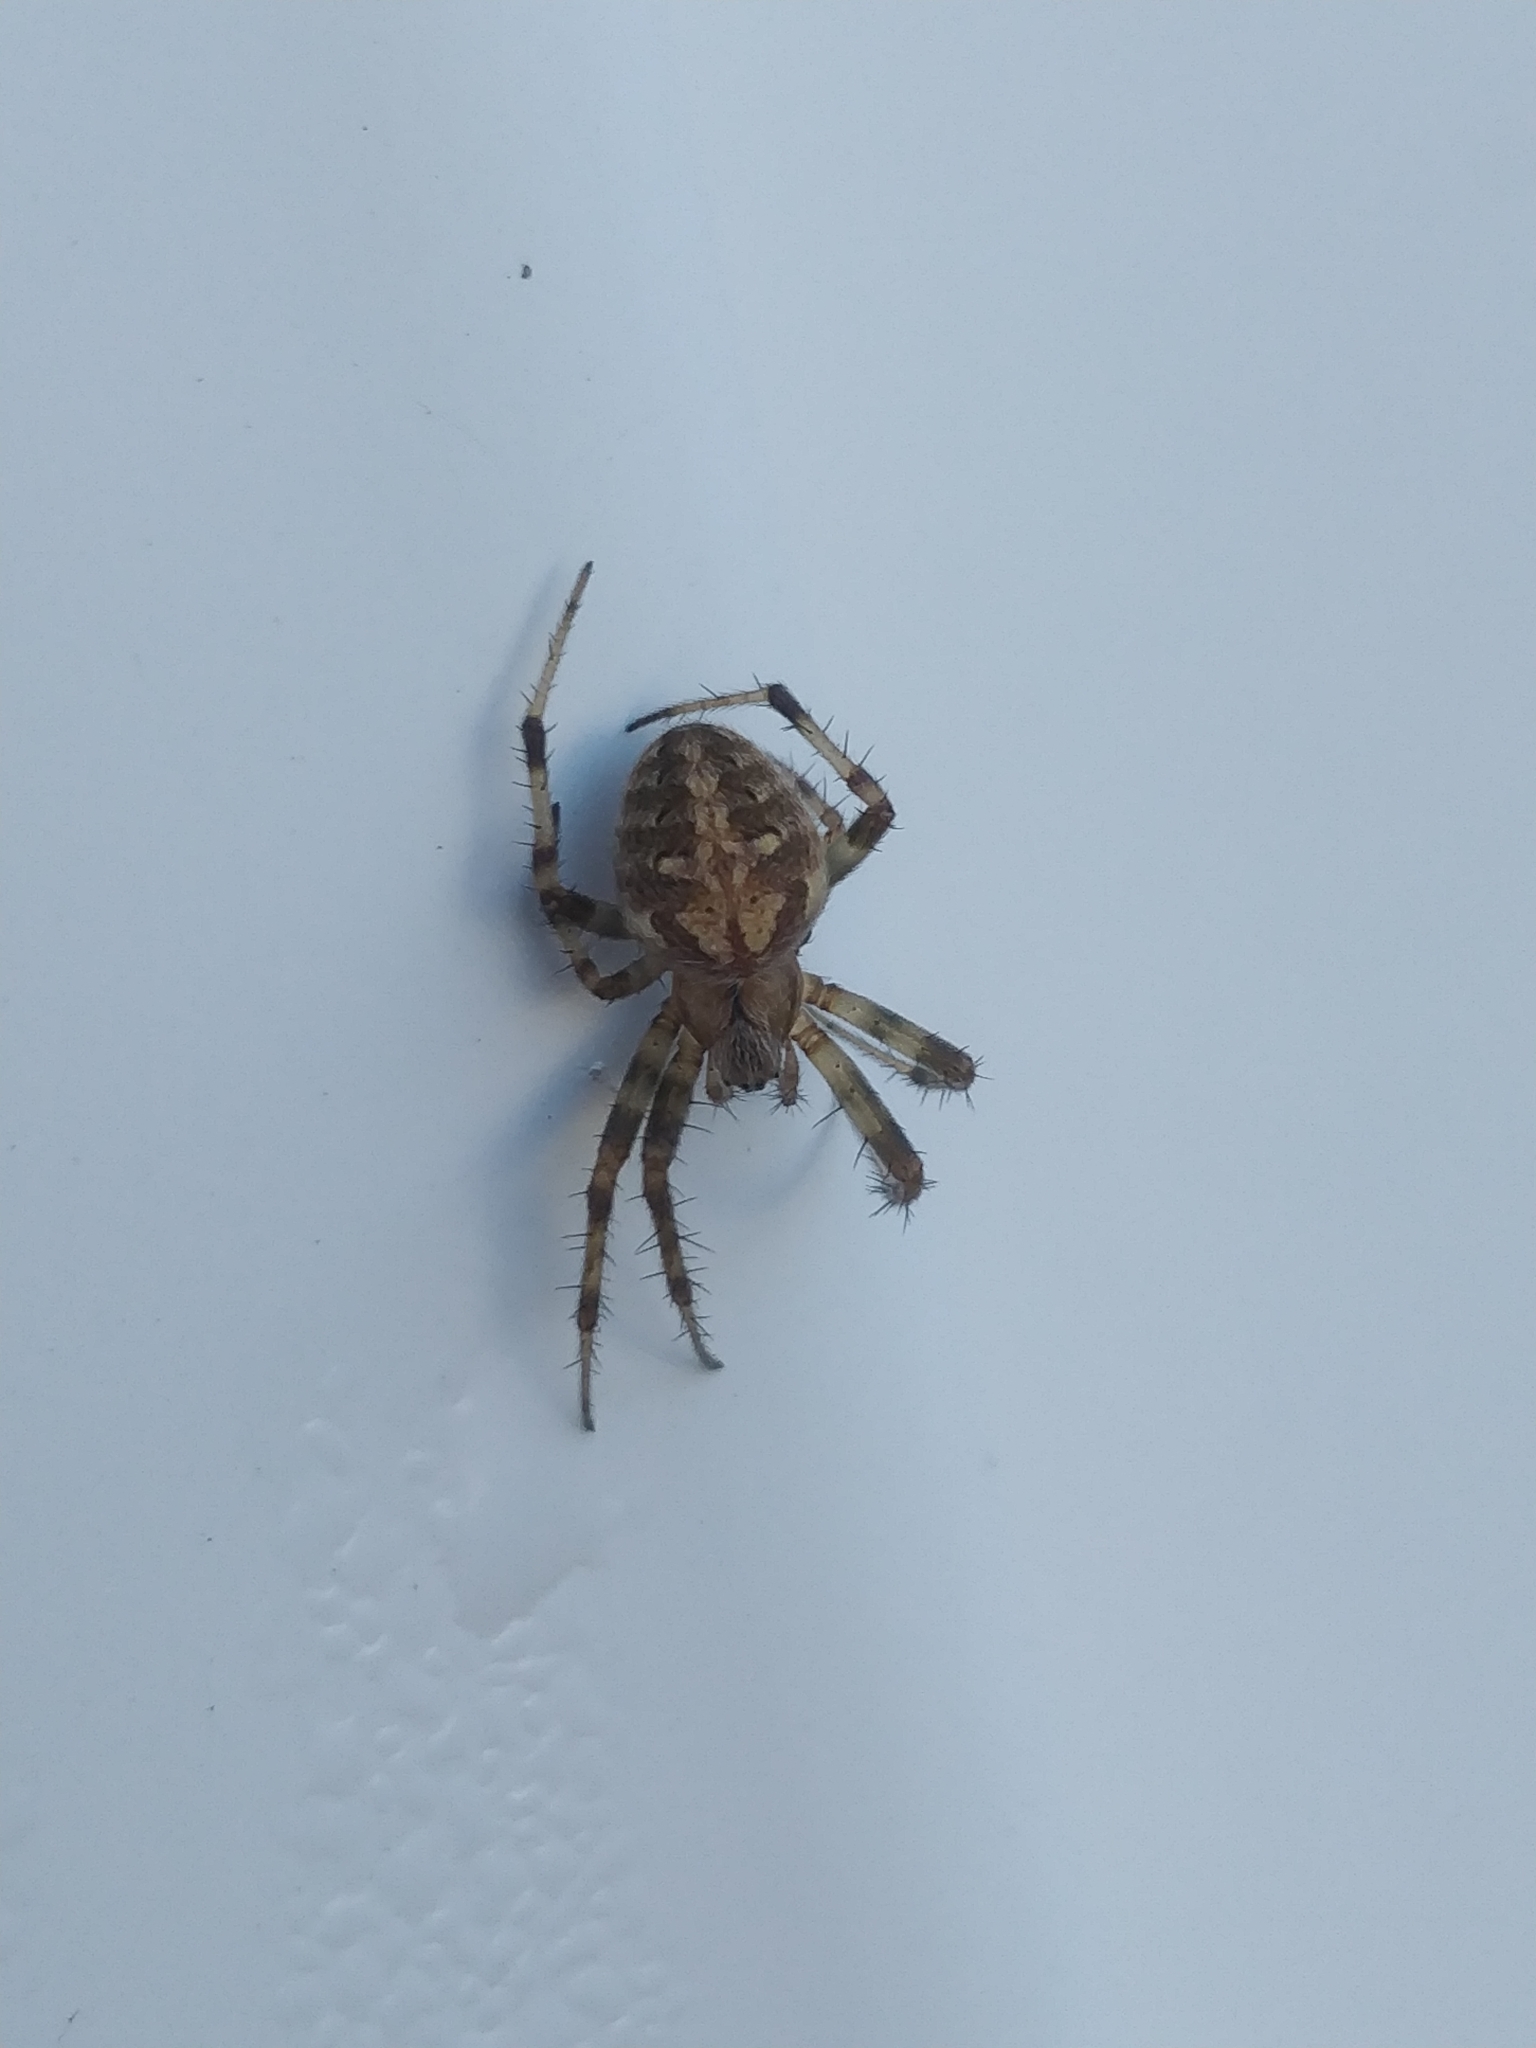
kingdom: Animalia
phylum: Arthropoda
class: Arachnida
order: Araneae
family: Araneidae
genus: Neoscona
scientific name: Neoscona arabesca
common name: Orb weavers
